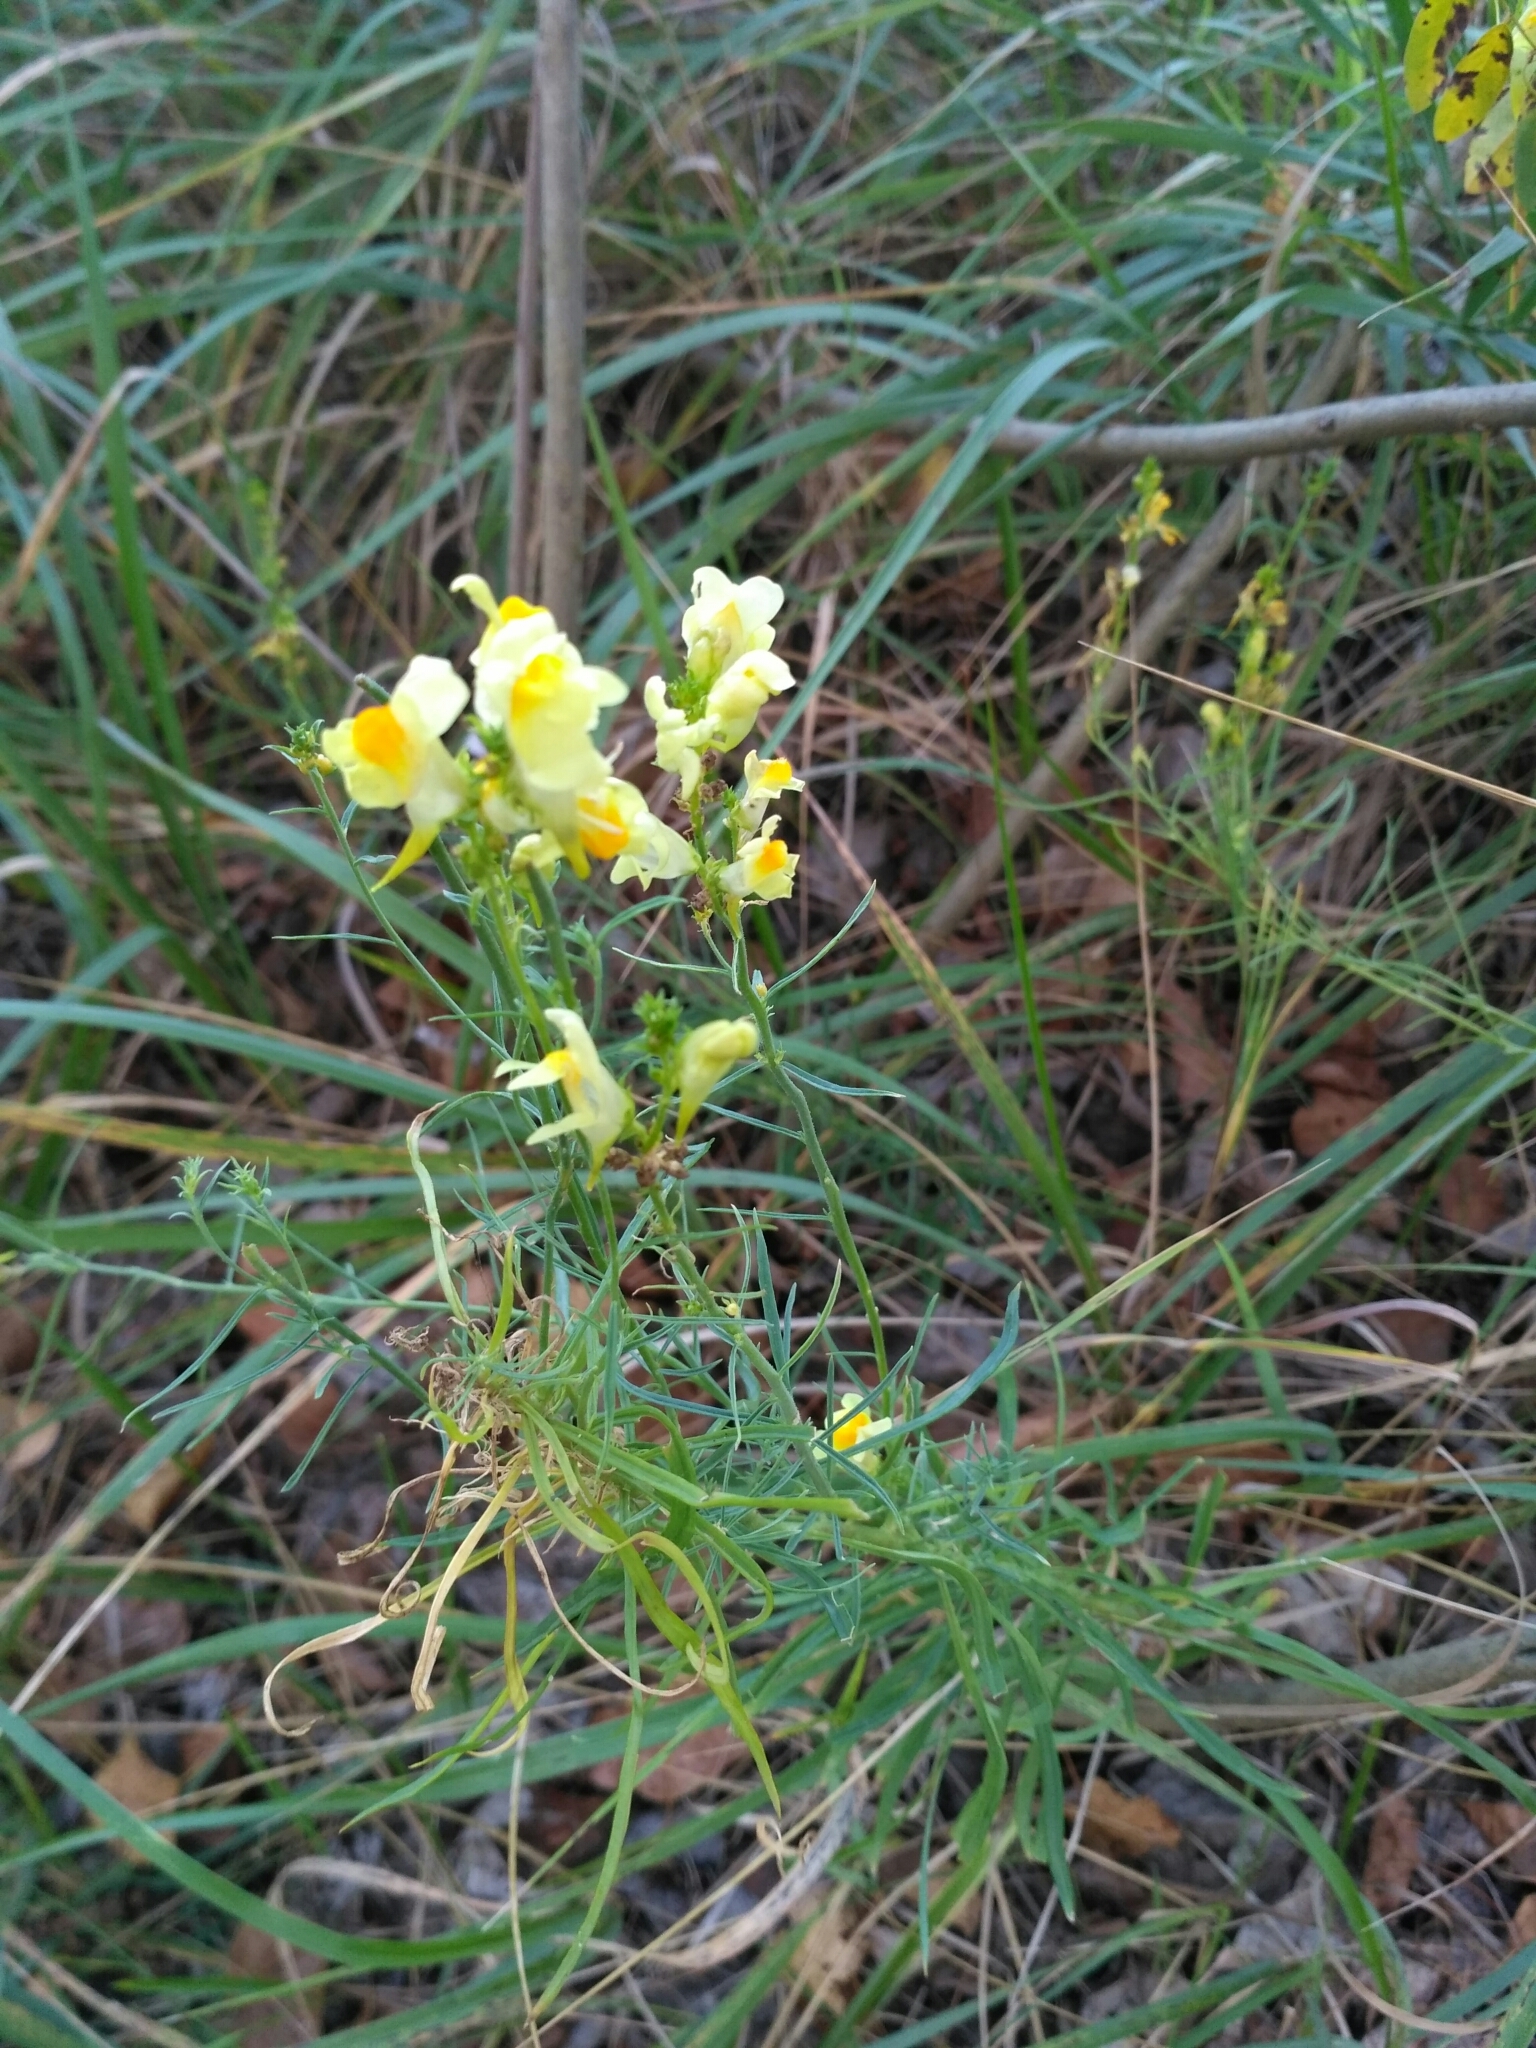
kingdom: Plantae
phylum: Tracheophyta
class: Magnoliopsida
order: Lamiales
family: Plantaginaceae
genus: Linaria
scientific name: Linaria vulgaris
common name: Butter and eggs
